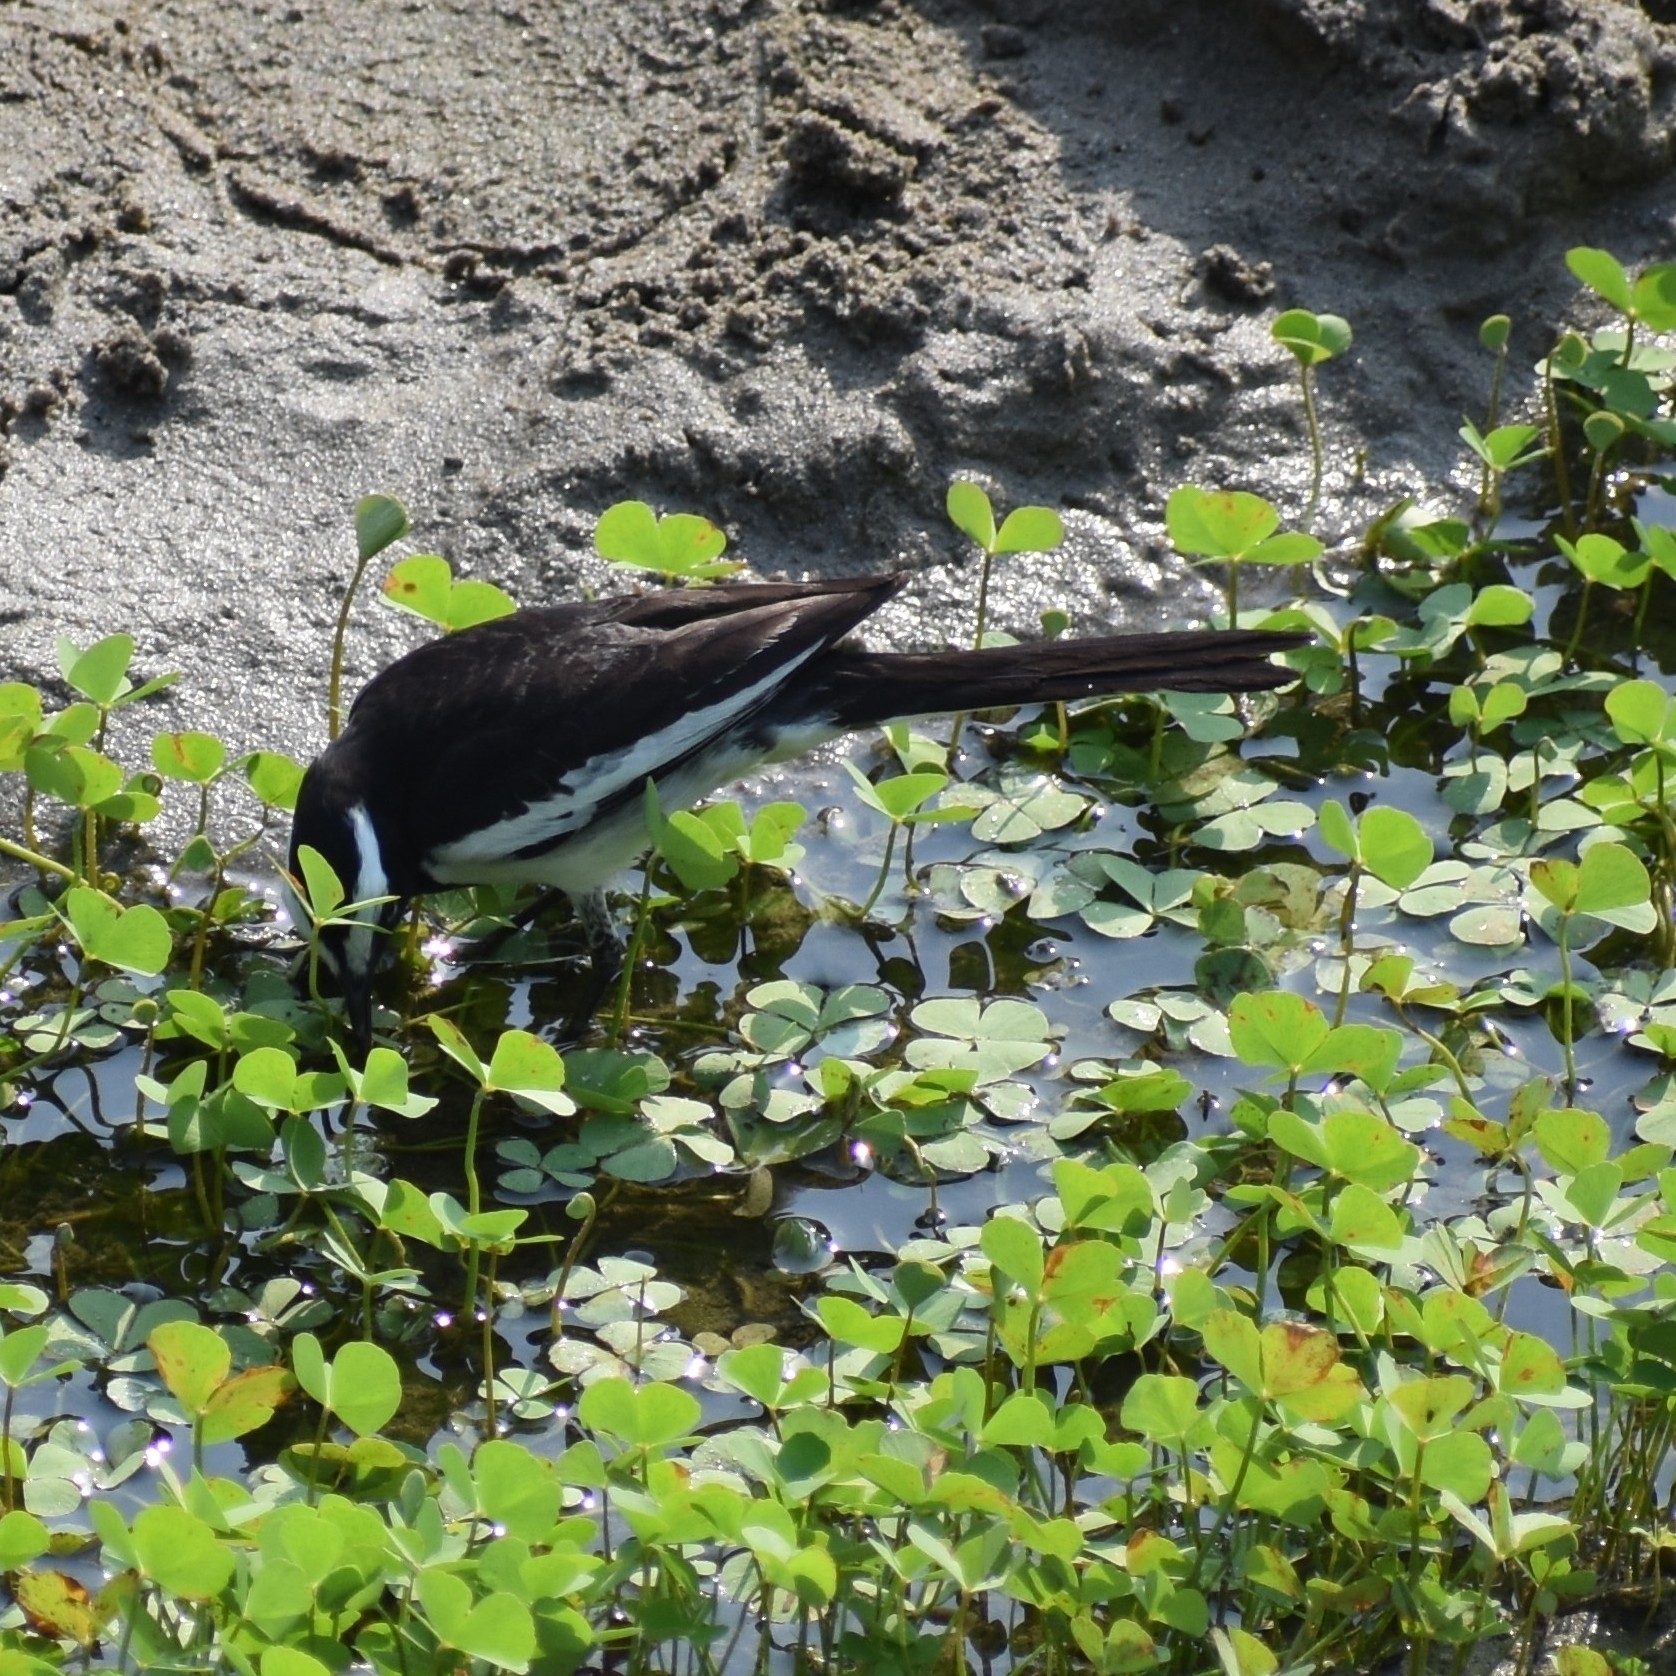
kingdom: Animalia
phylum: Chordata
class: Aves
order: Passeriformes
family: Motacillidae
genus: Motacilla
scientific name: Motacilla maderaspatensis
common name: White-browed wagtail
